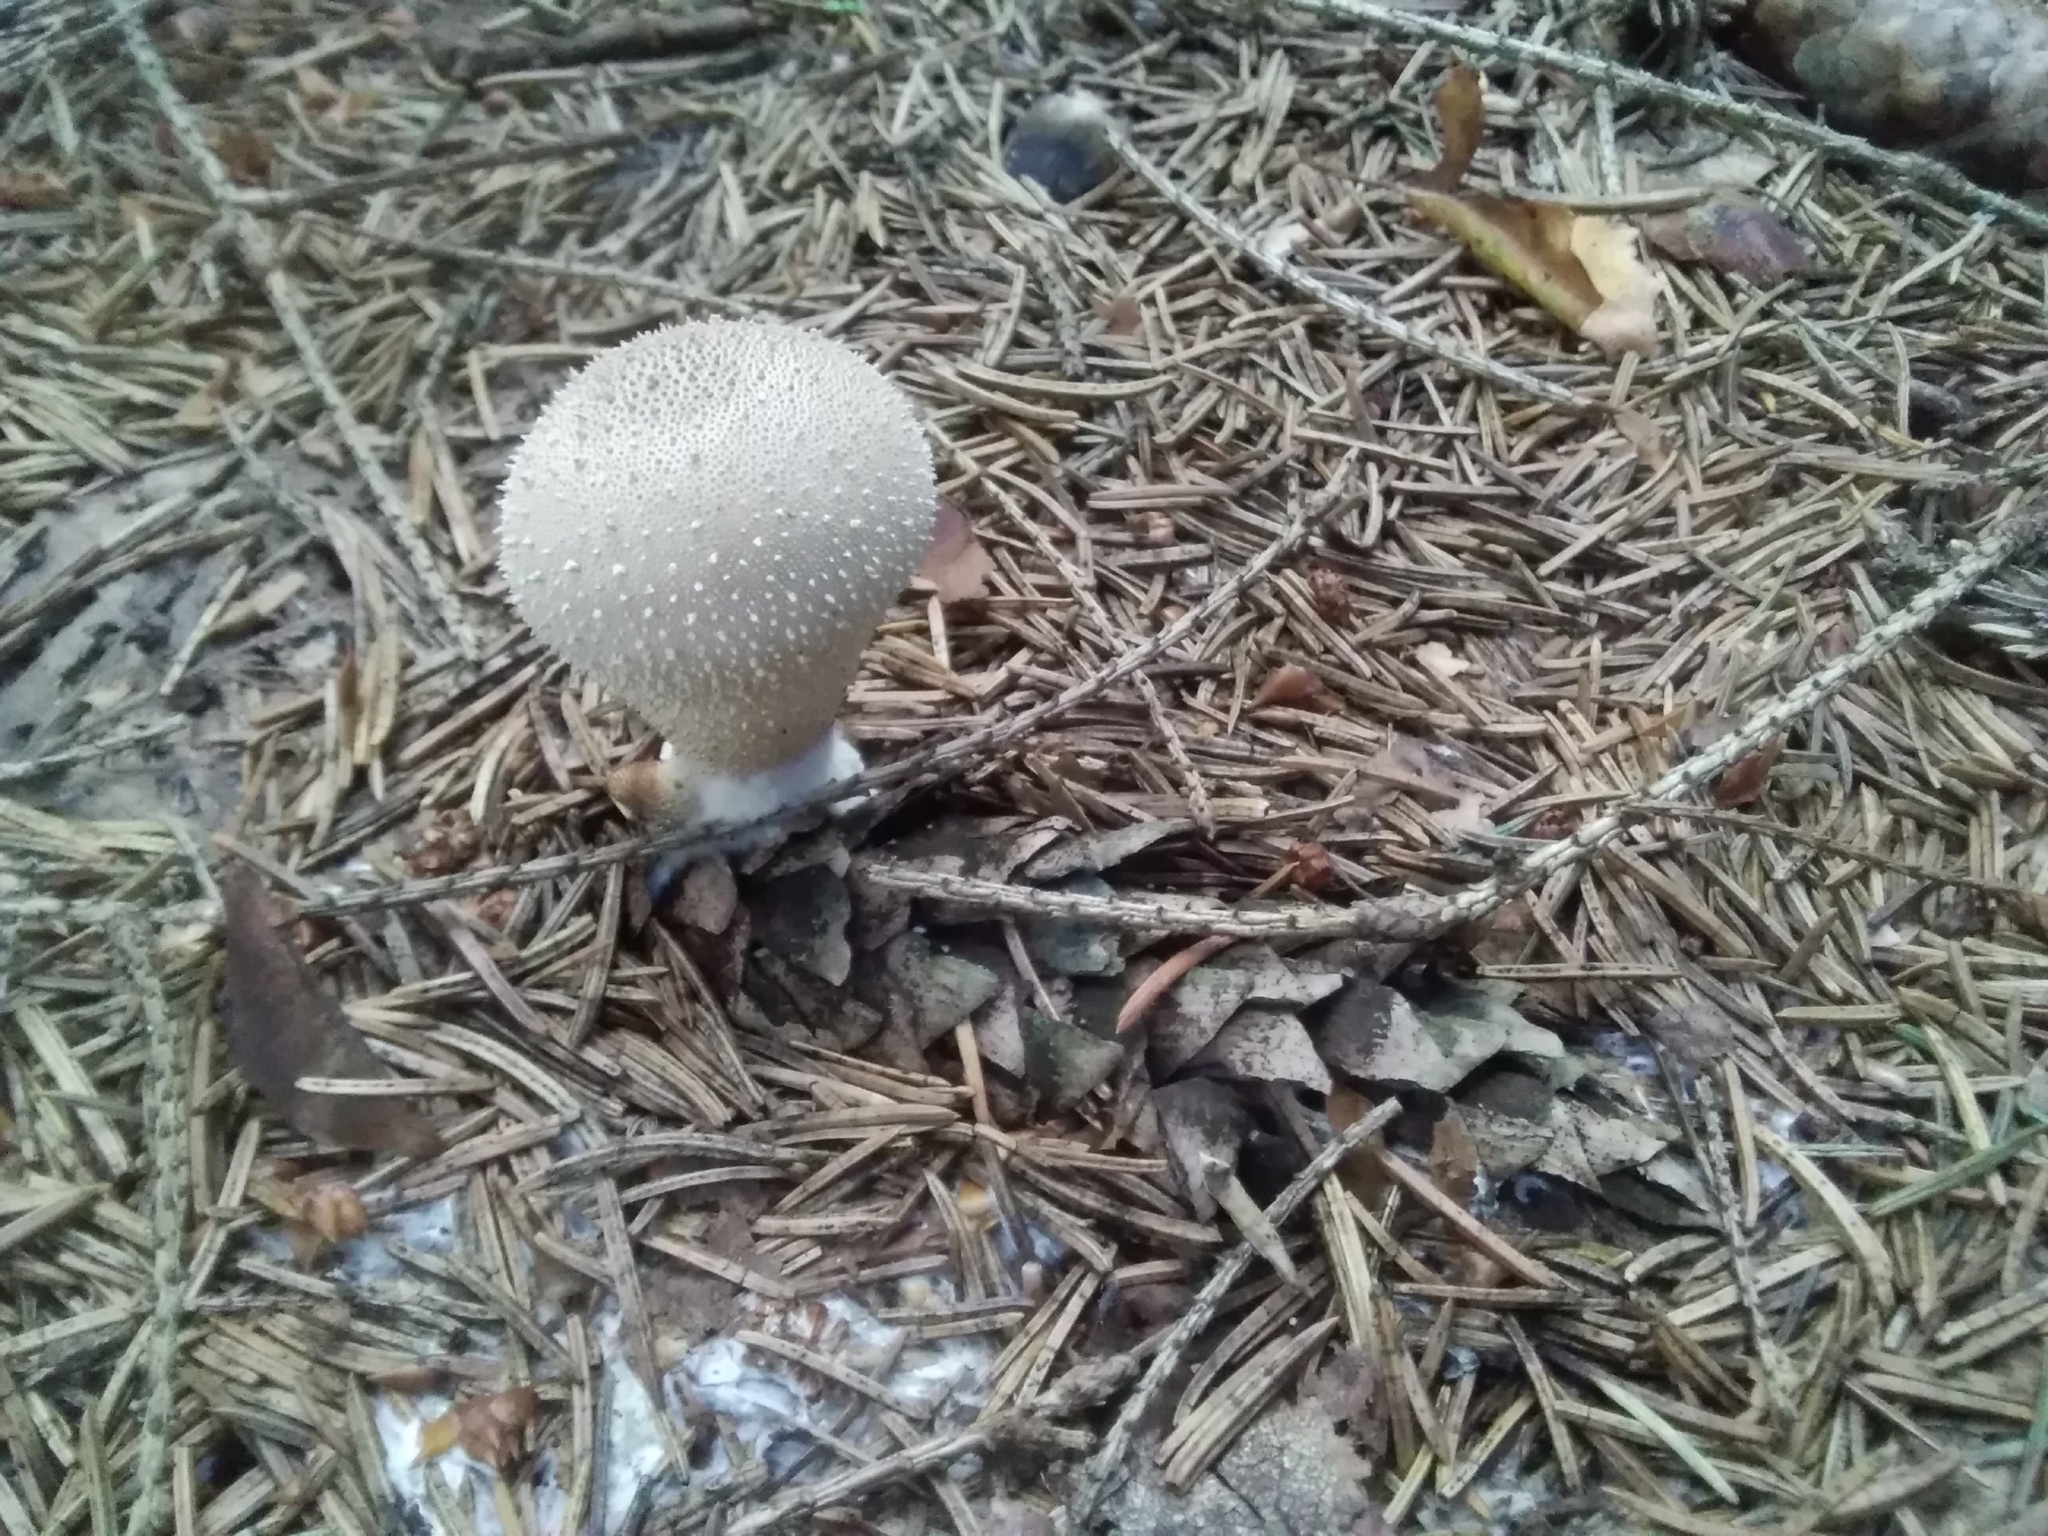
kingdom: Fungi
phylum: Basidiomycota
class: Agaricomycetes
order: Agaricales
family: Lycoperdaceae
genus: Lycoperdon
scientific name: Lycoperdon perlatum
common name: Common puffball
